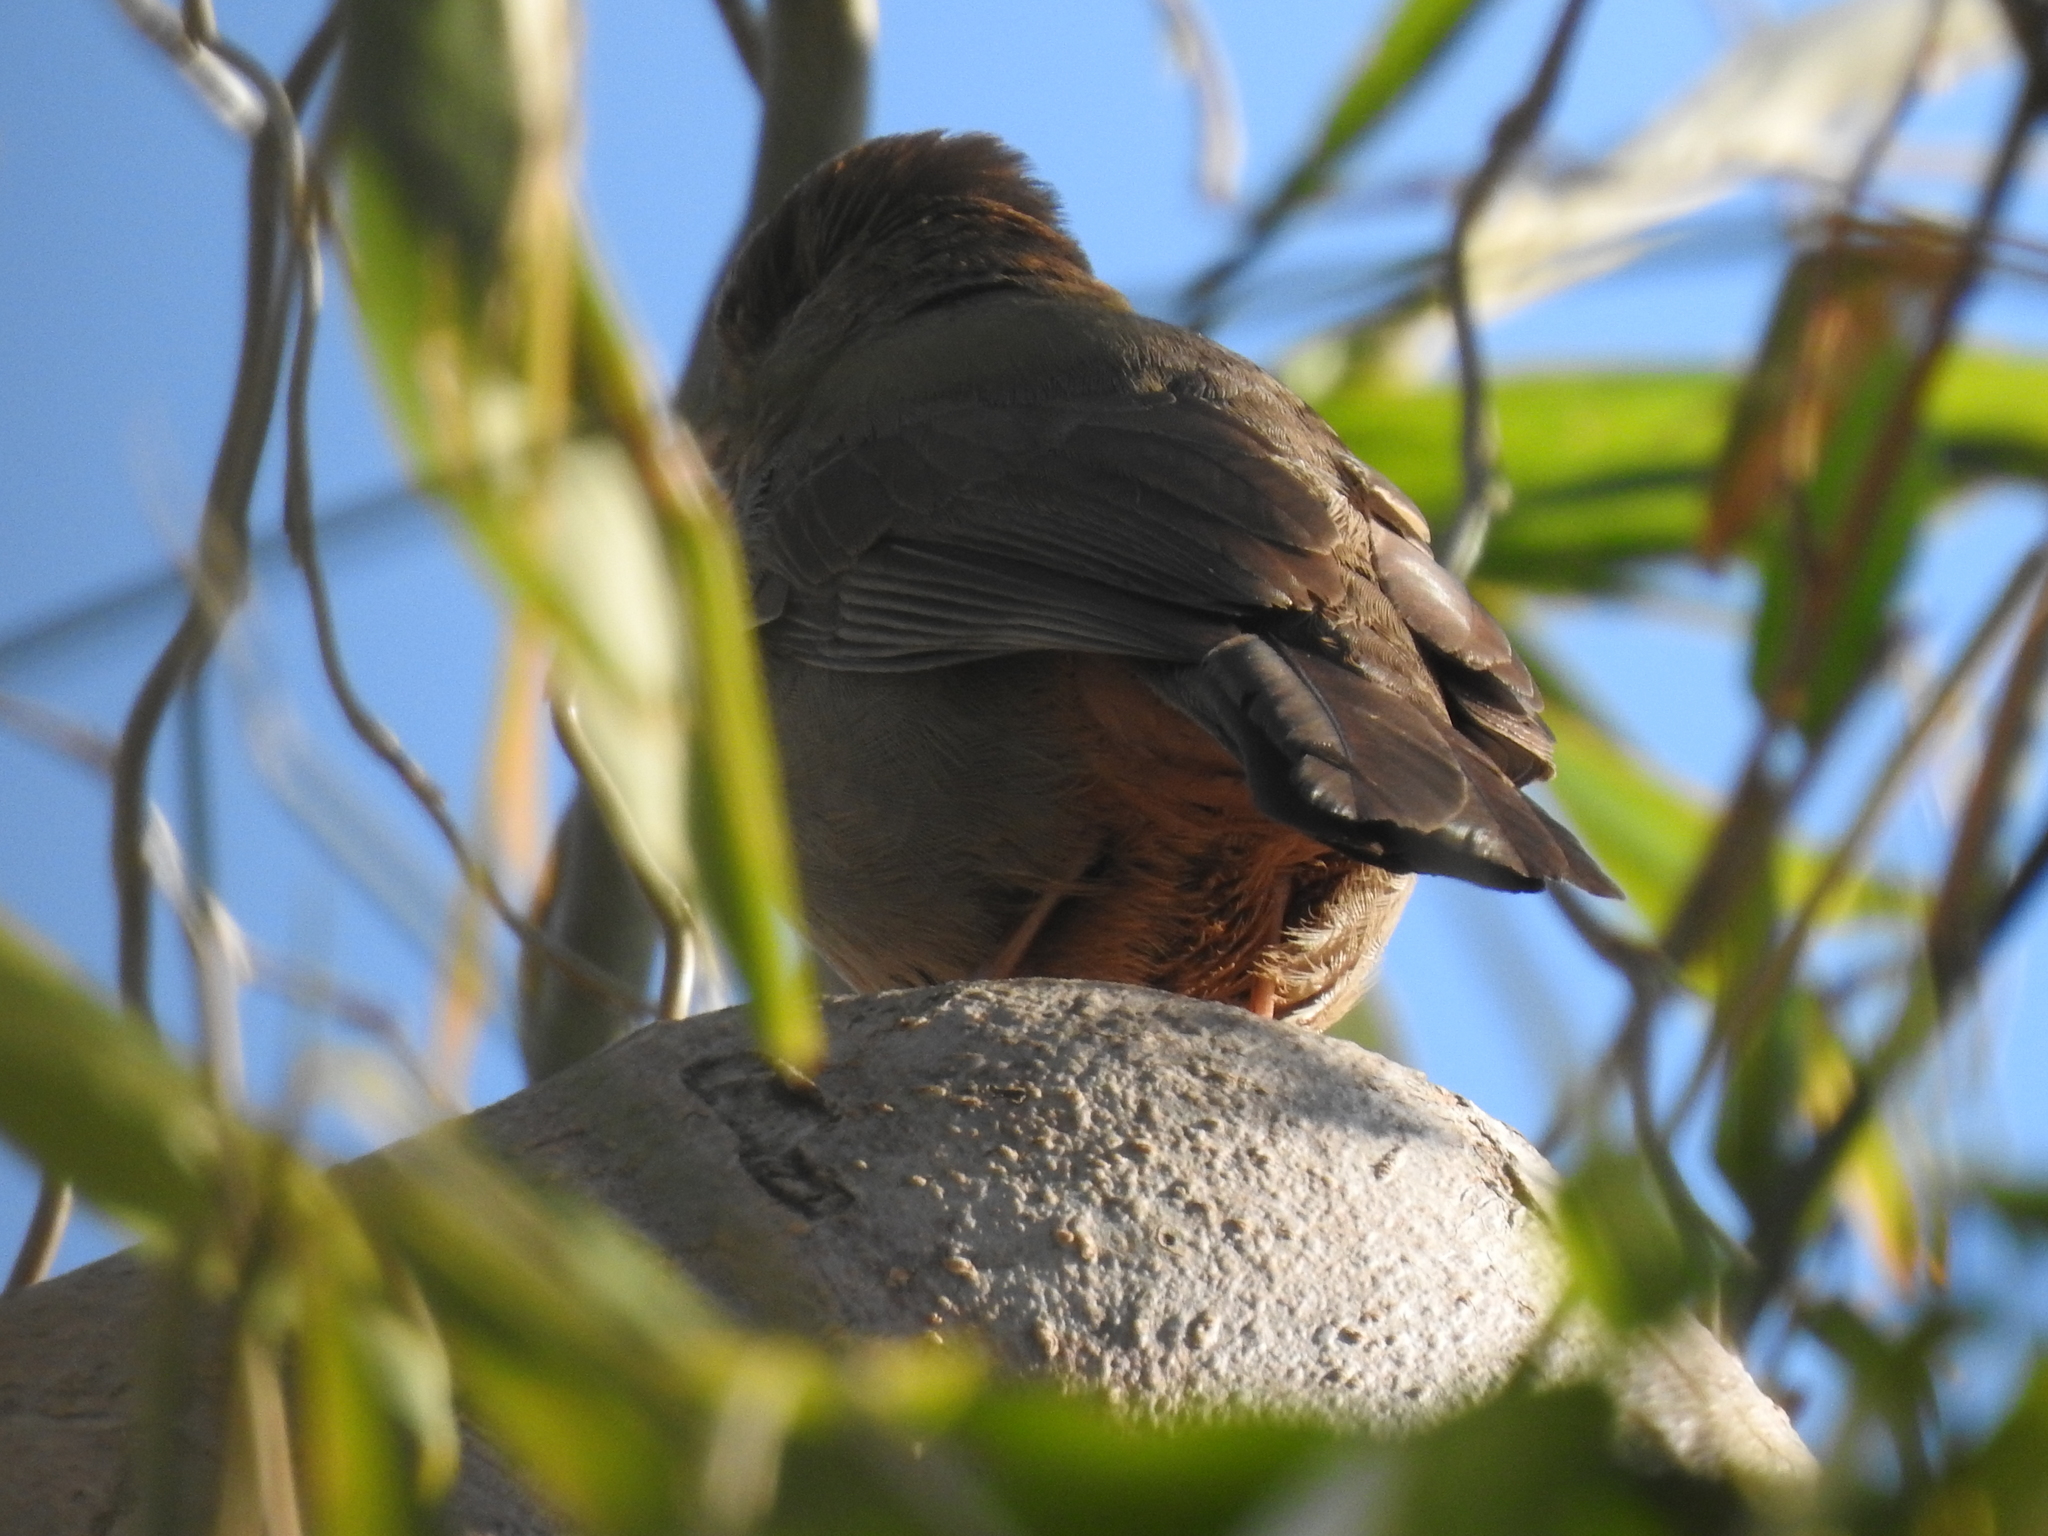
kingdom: Animalia
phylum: Chordata
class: Aves
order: Passeriformes
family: Passerellidae
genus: Melozone
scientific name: Melozone crissalis
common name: California towhee
